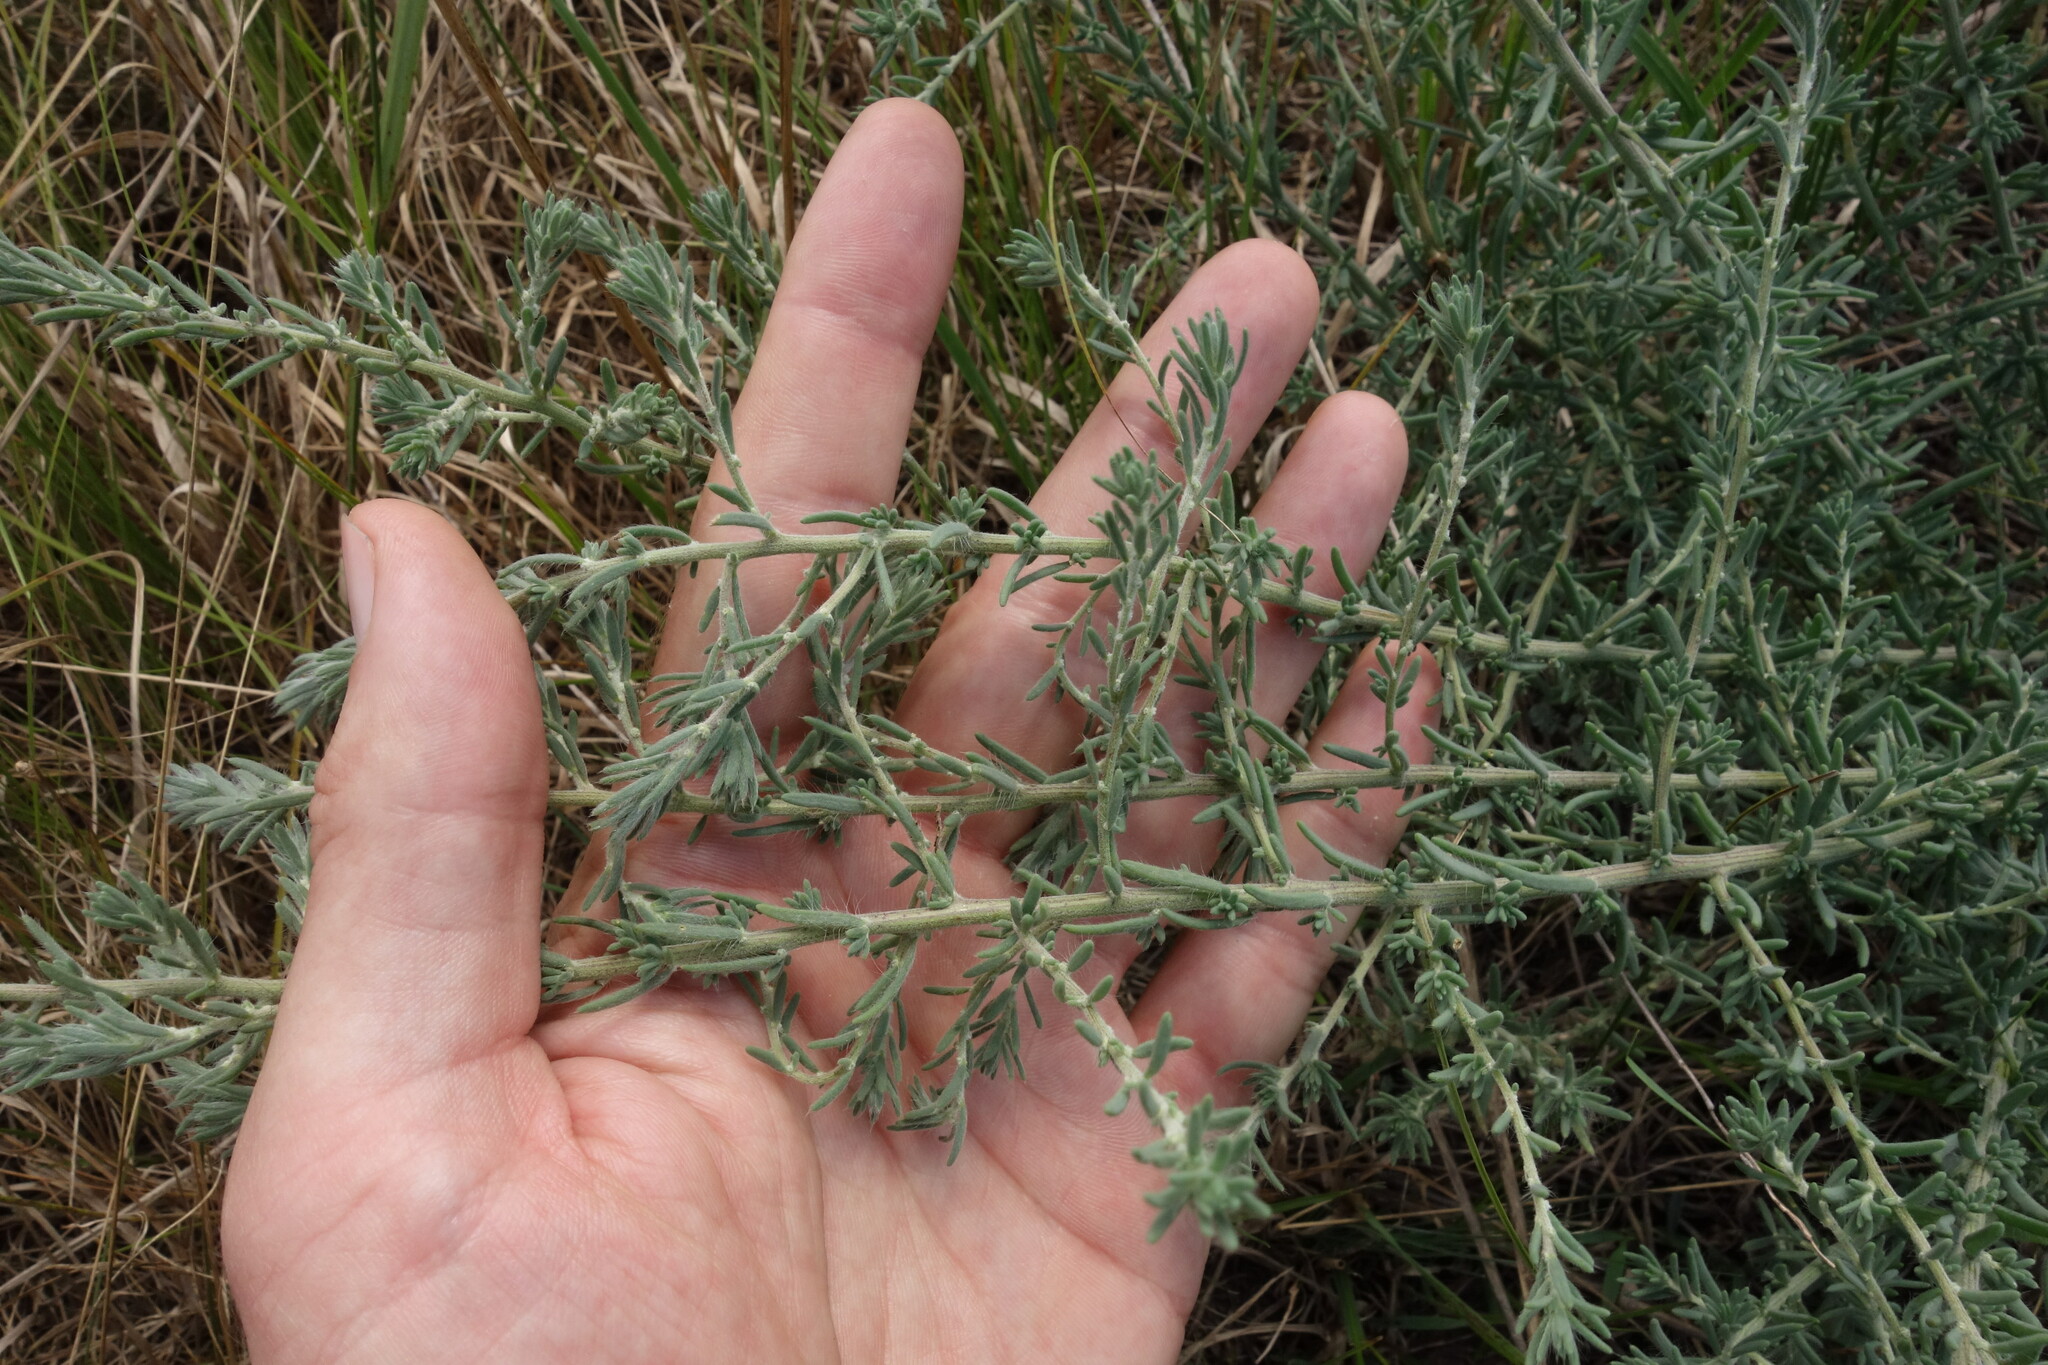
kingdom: Plantae
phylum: Tracheophyta
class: Magnoliopsida
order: Caryophyllales
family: Amaranthaceae
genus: Sedobassia
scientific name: Sedobassia sedoides
